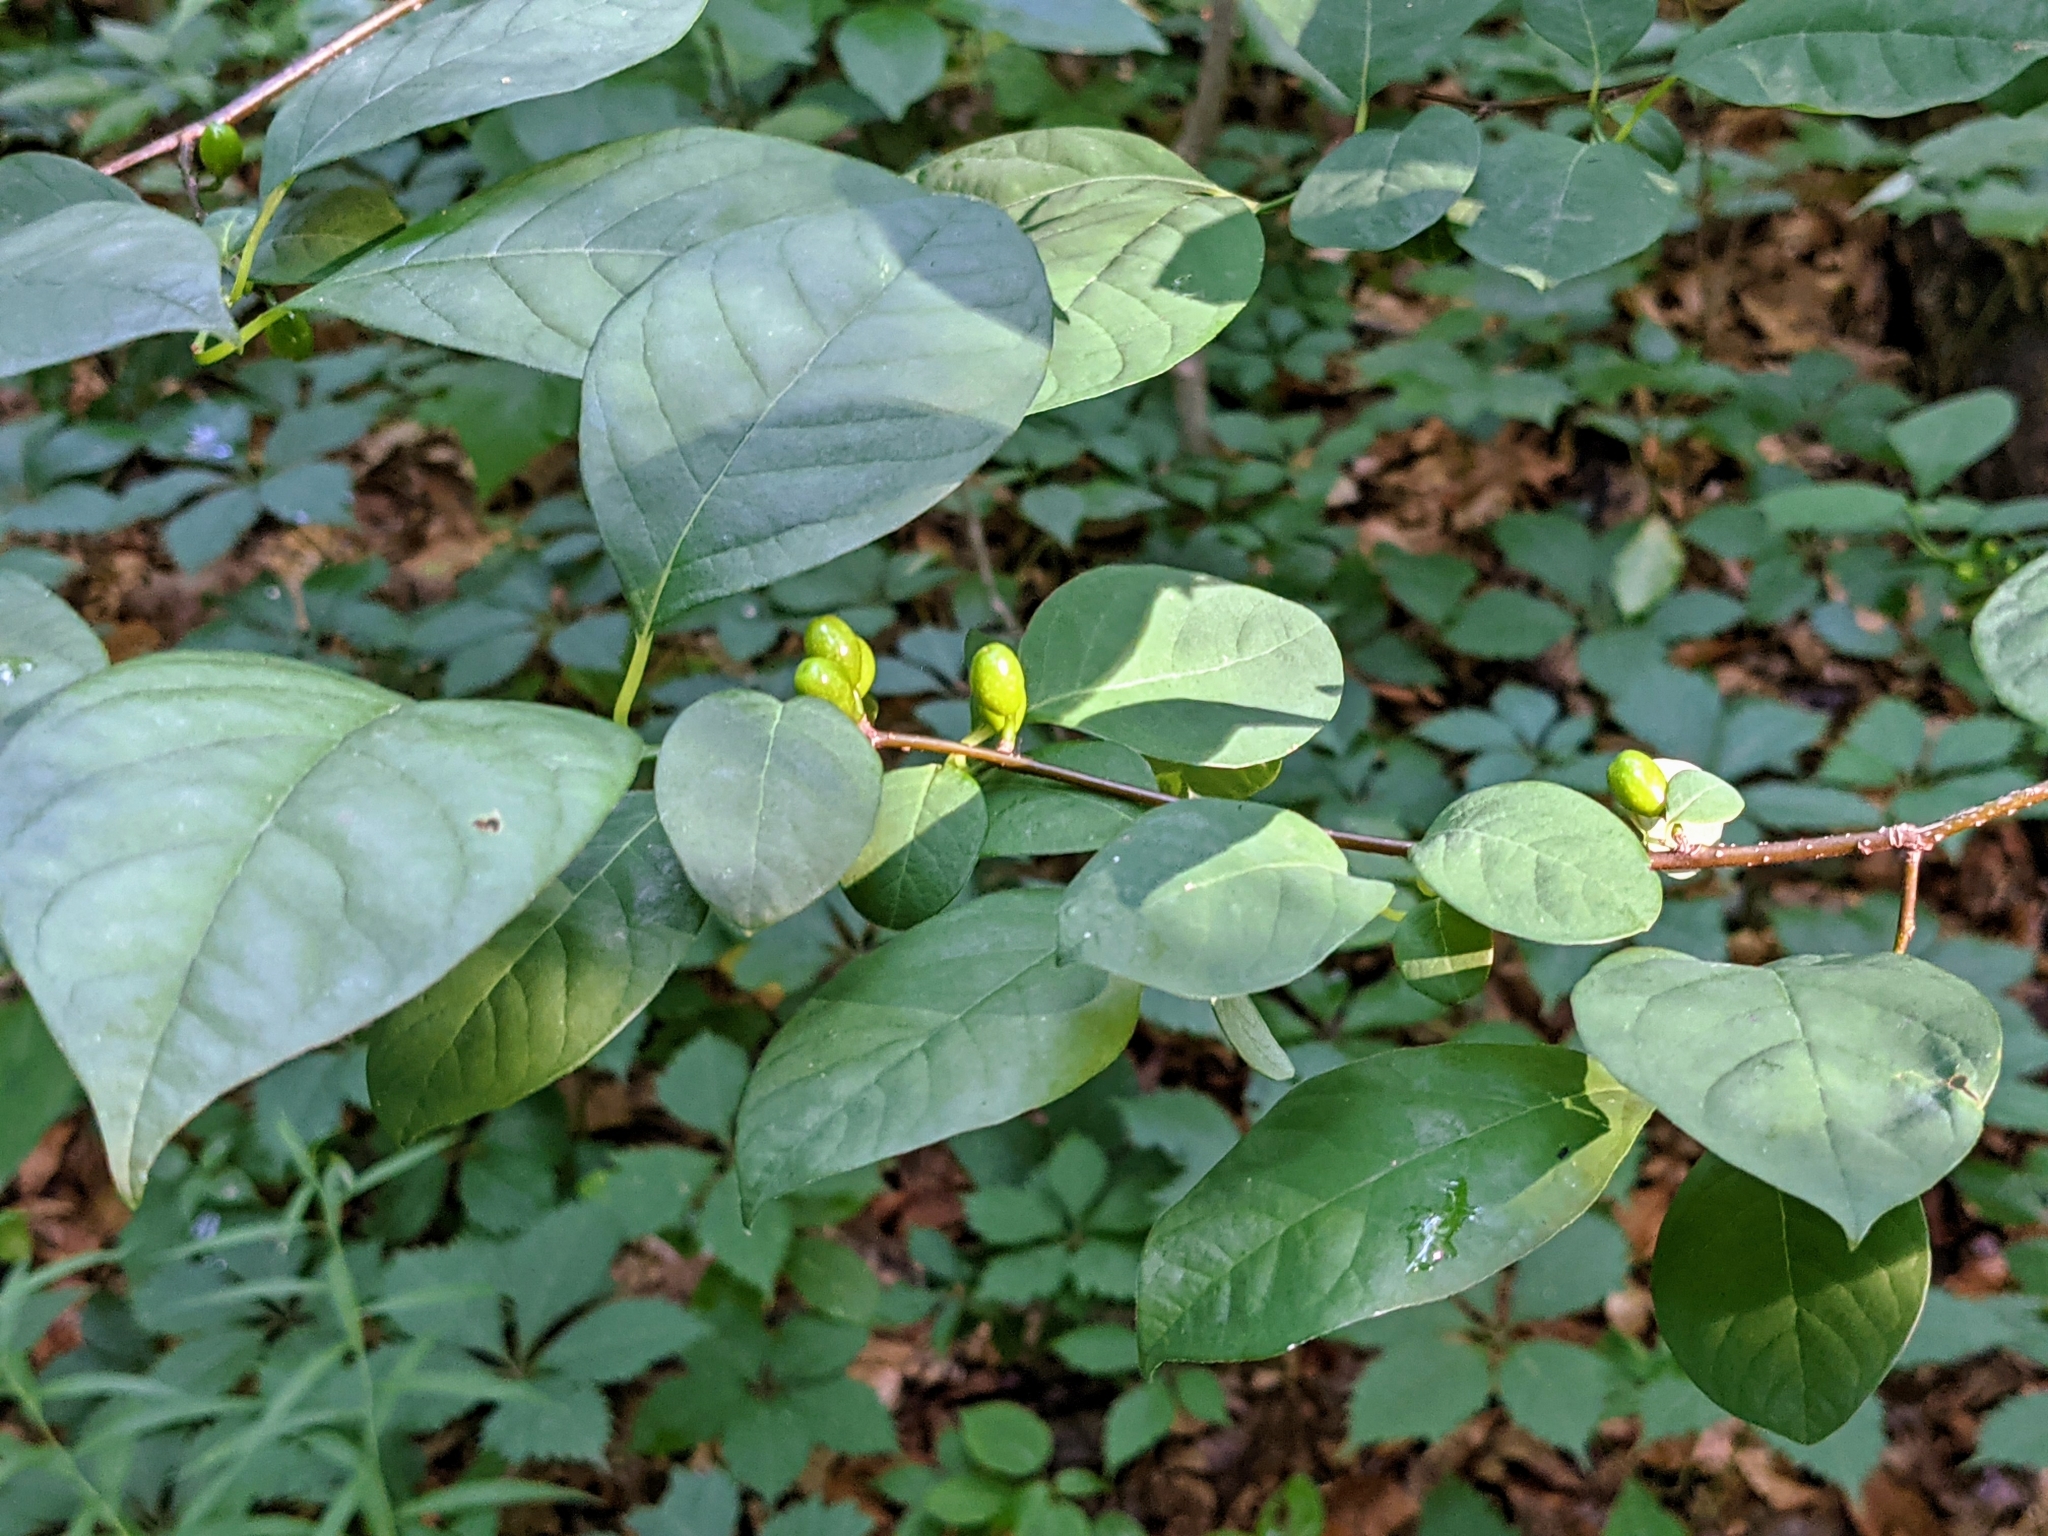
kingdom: Plantae
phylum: Tracheophyta
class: Magnoliopsida
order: Laurales
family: Lauraceae
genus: Lindera
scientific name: Lindera benzoin
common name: Spicebush
